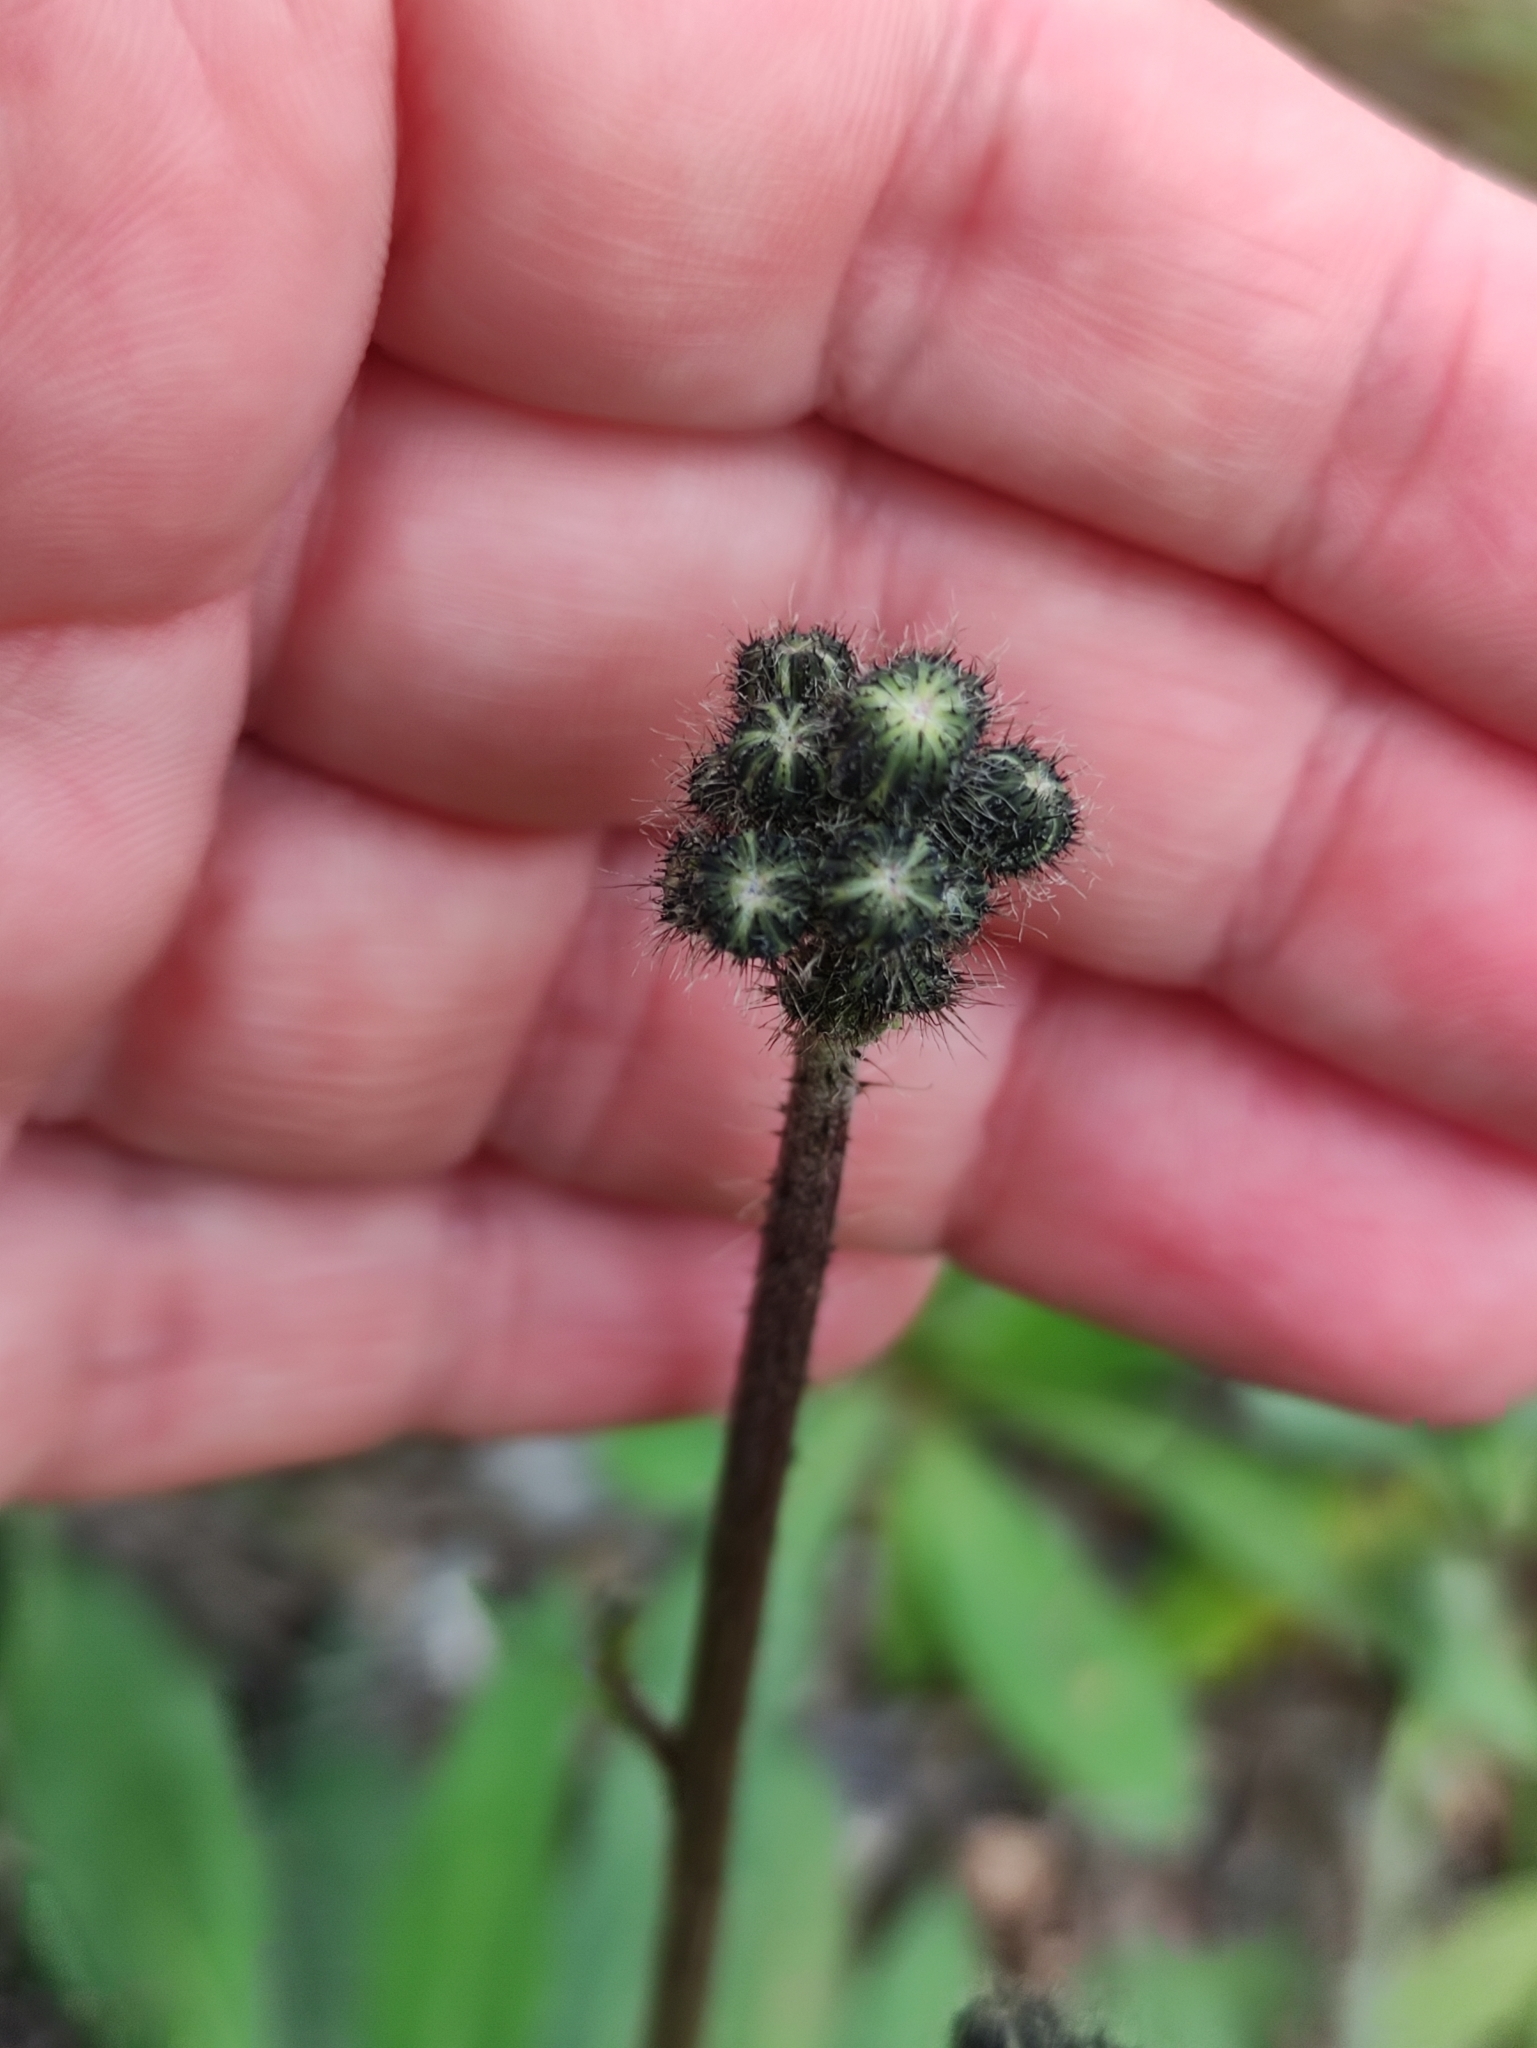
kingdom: Plantae
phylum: Tracheophyta
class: Magnoliopsida
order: Asterales
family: Asteraceae
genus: Pilosella
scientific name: Pilosella
